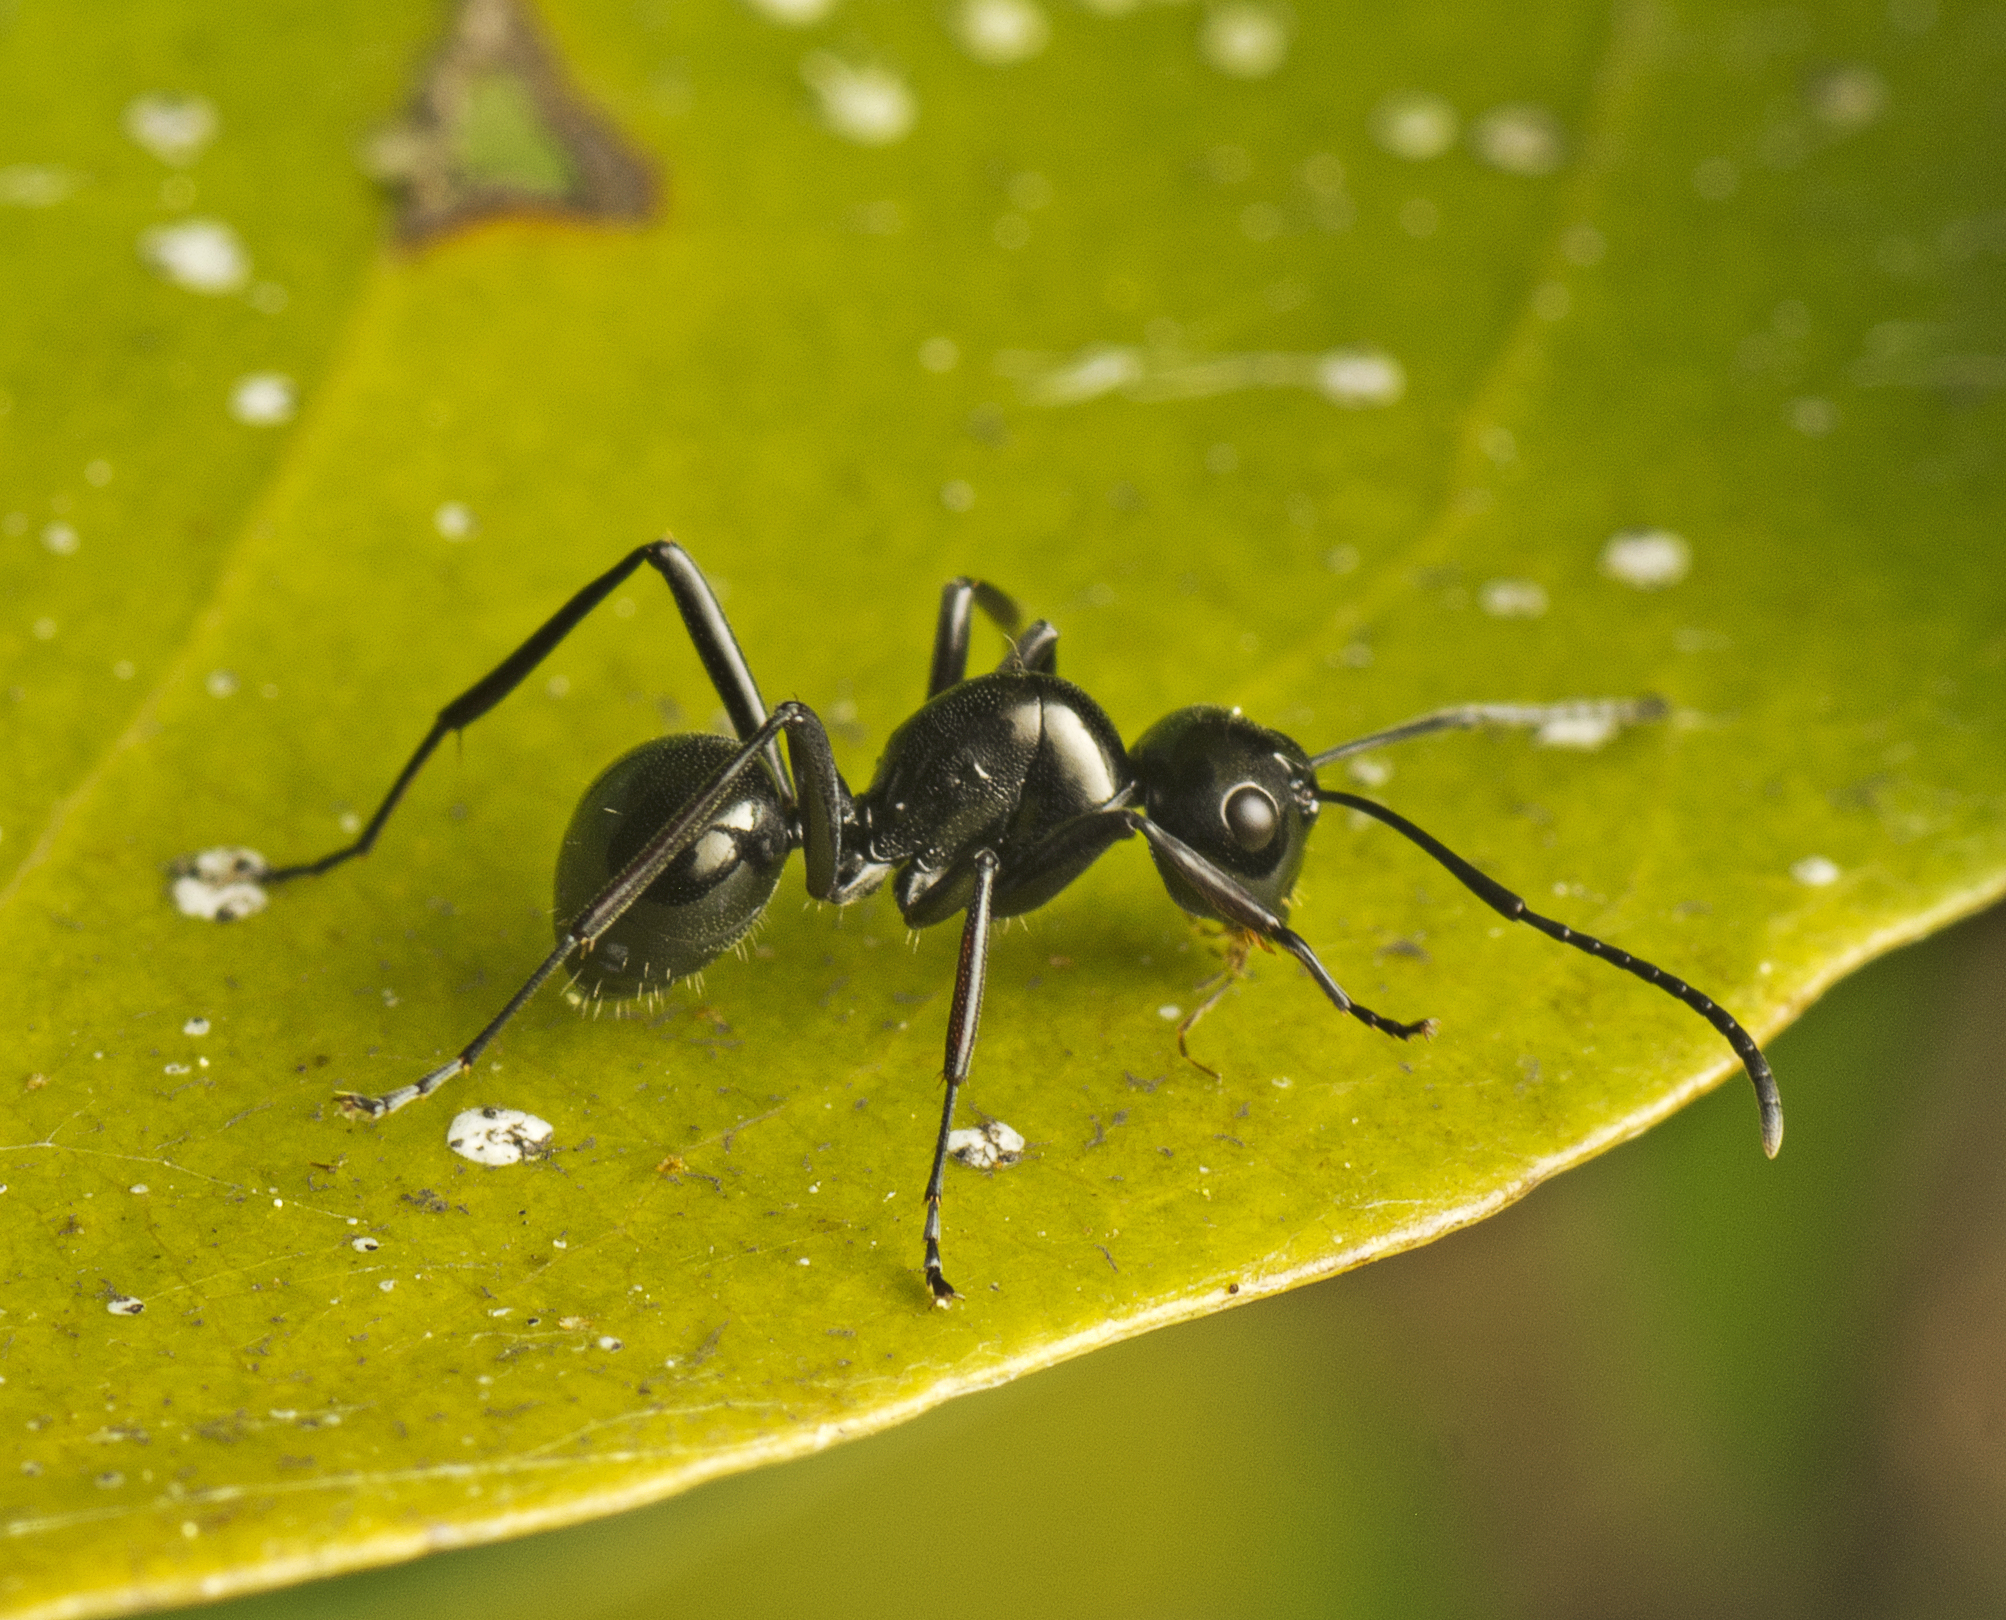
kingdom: Animalia
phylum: Arthropoda
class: Insecta
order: Hymenoptera
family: Formicidae
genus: Polyrhachis
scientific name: Polyrhachis mackayi
